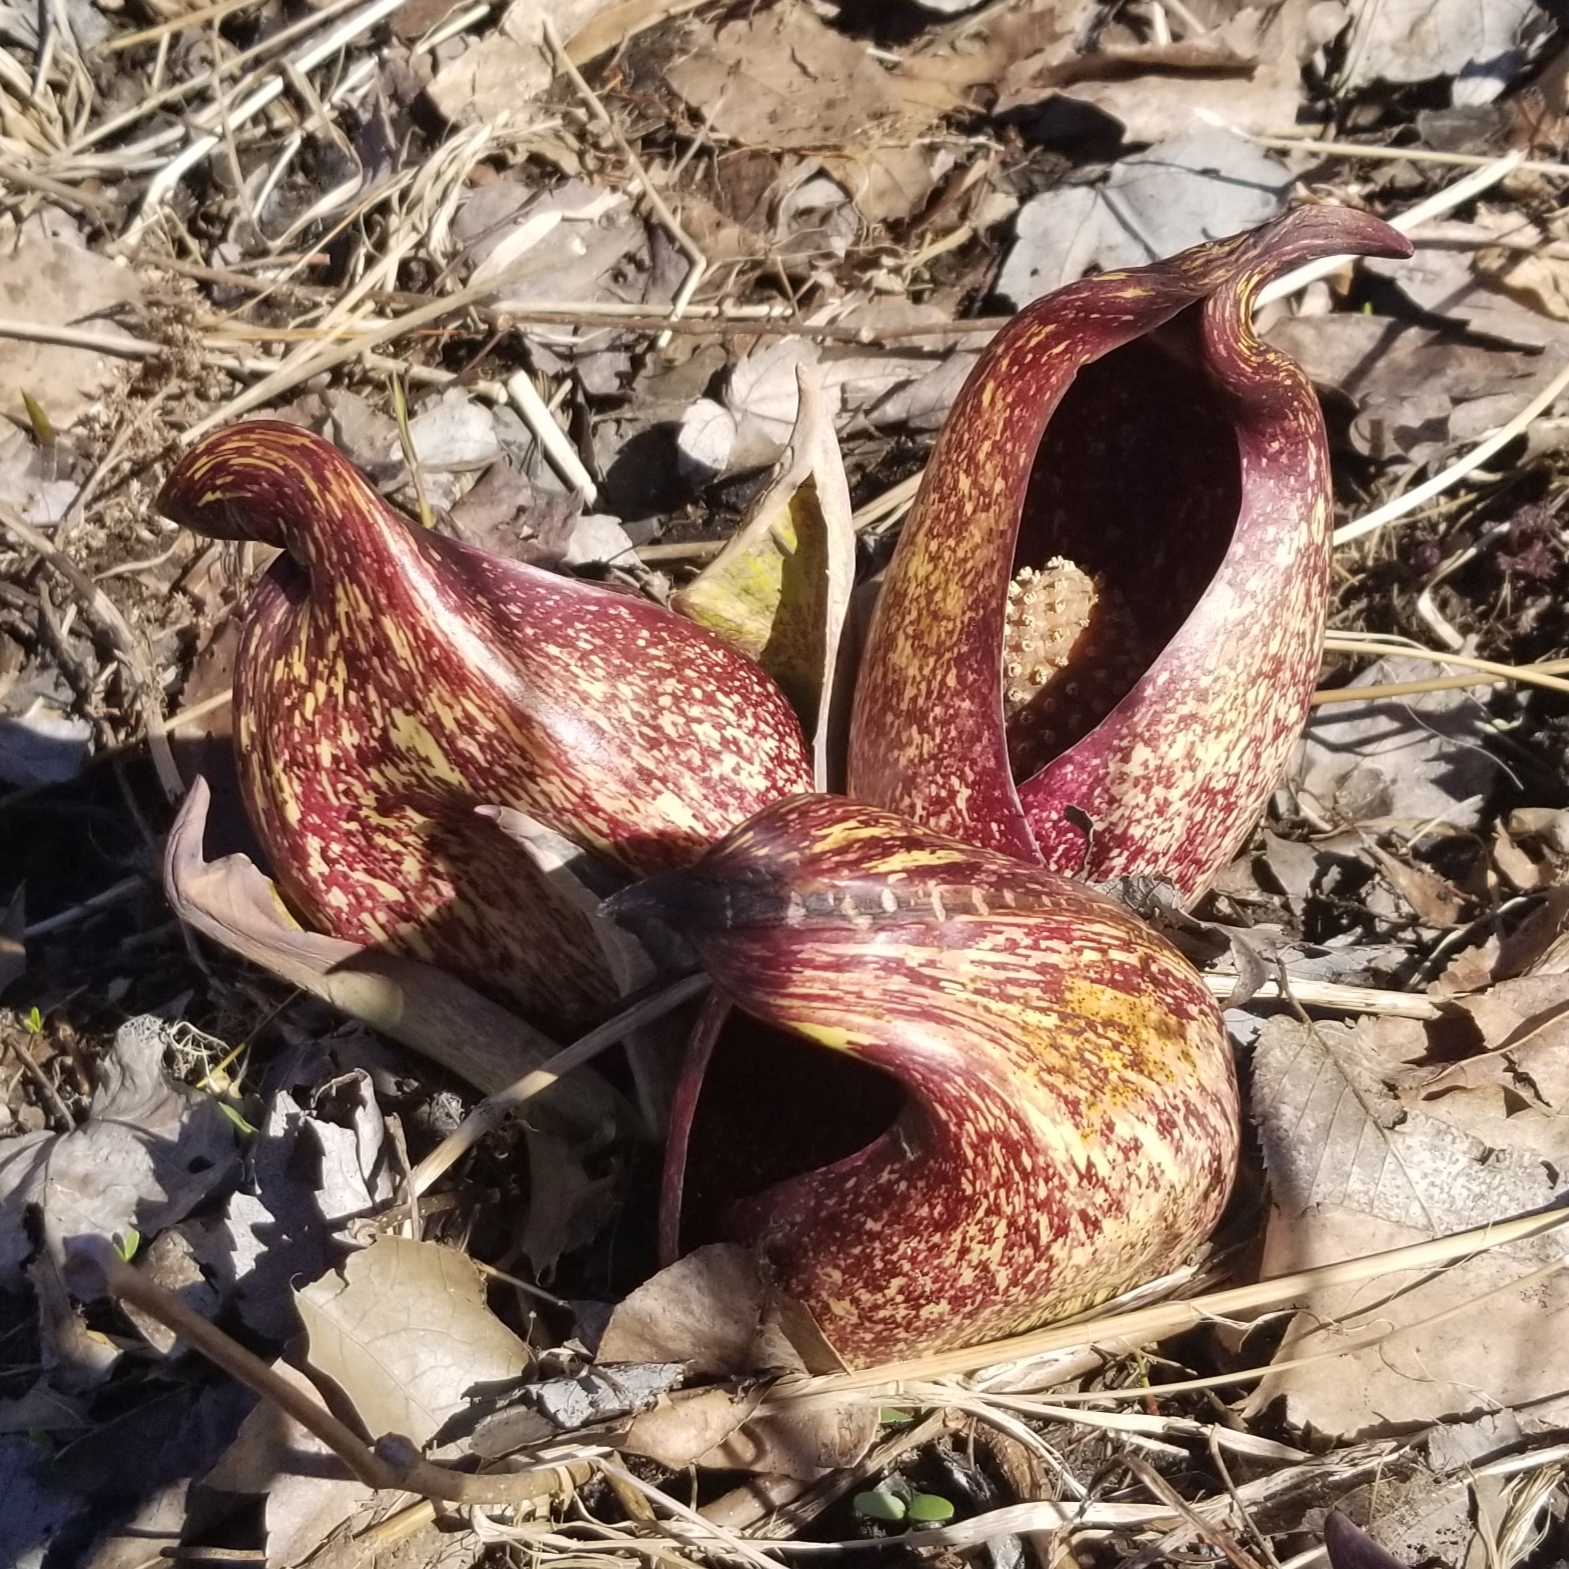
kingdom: Plantae
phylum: Tracheophyta
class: Liliopsida
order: Alismatales
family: Araceae
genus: Symplocarpus
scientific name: Symplocarpus foetidus
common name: Eastern skunk cabbage
